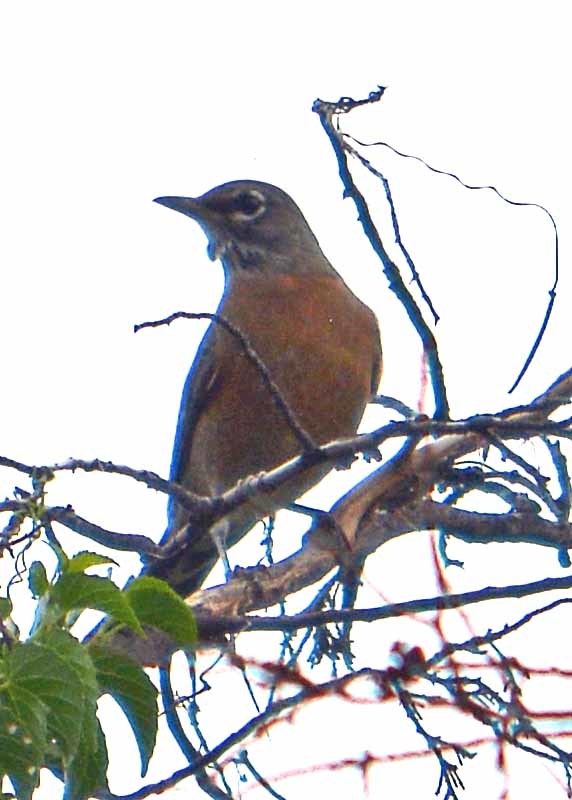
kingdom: Animalia
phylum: Chordata
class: Aves
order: Passeriformes
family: Turdidae
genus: Turdus
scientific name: Turdus migratorius
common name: American robin
